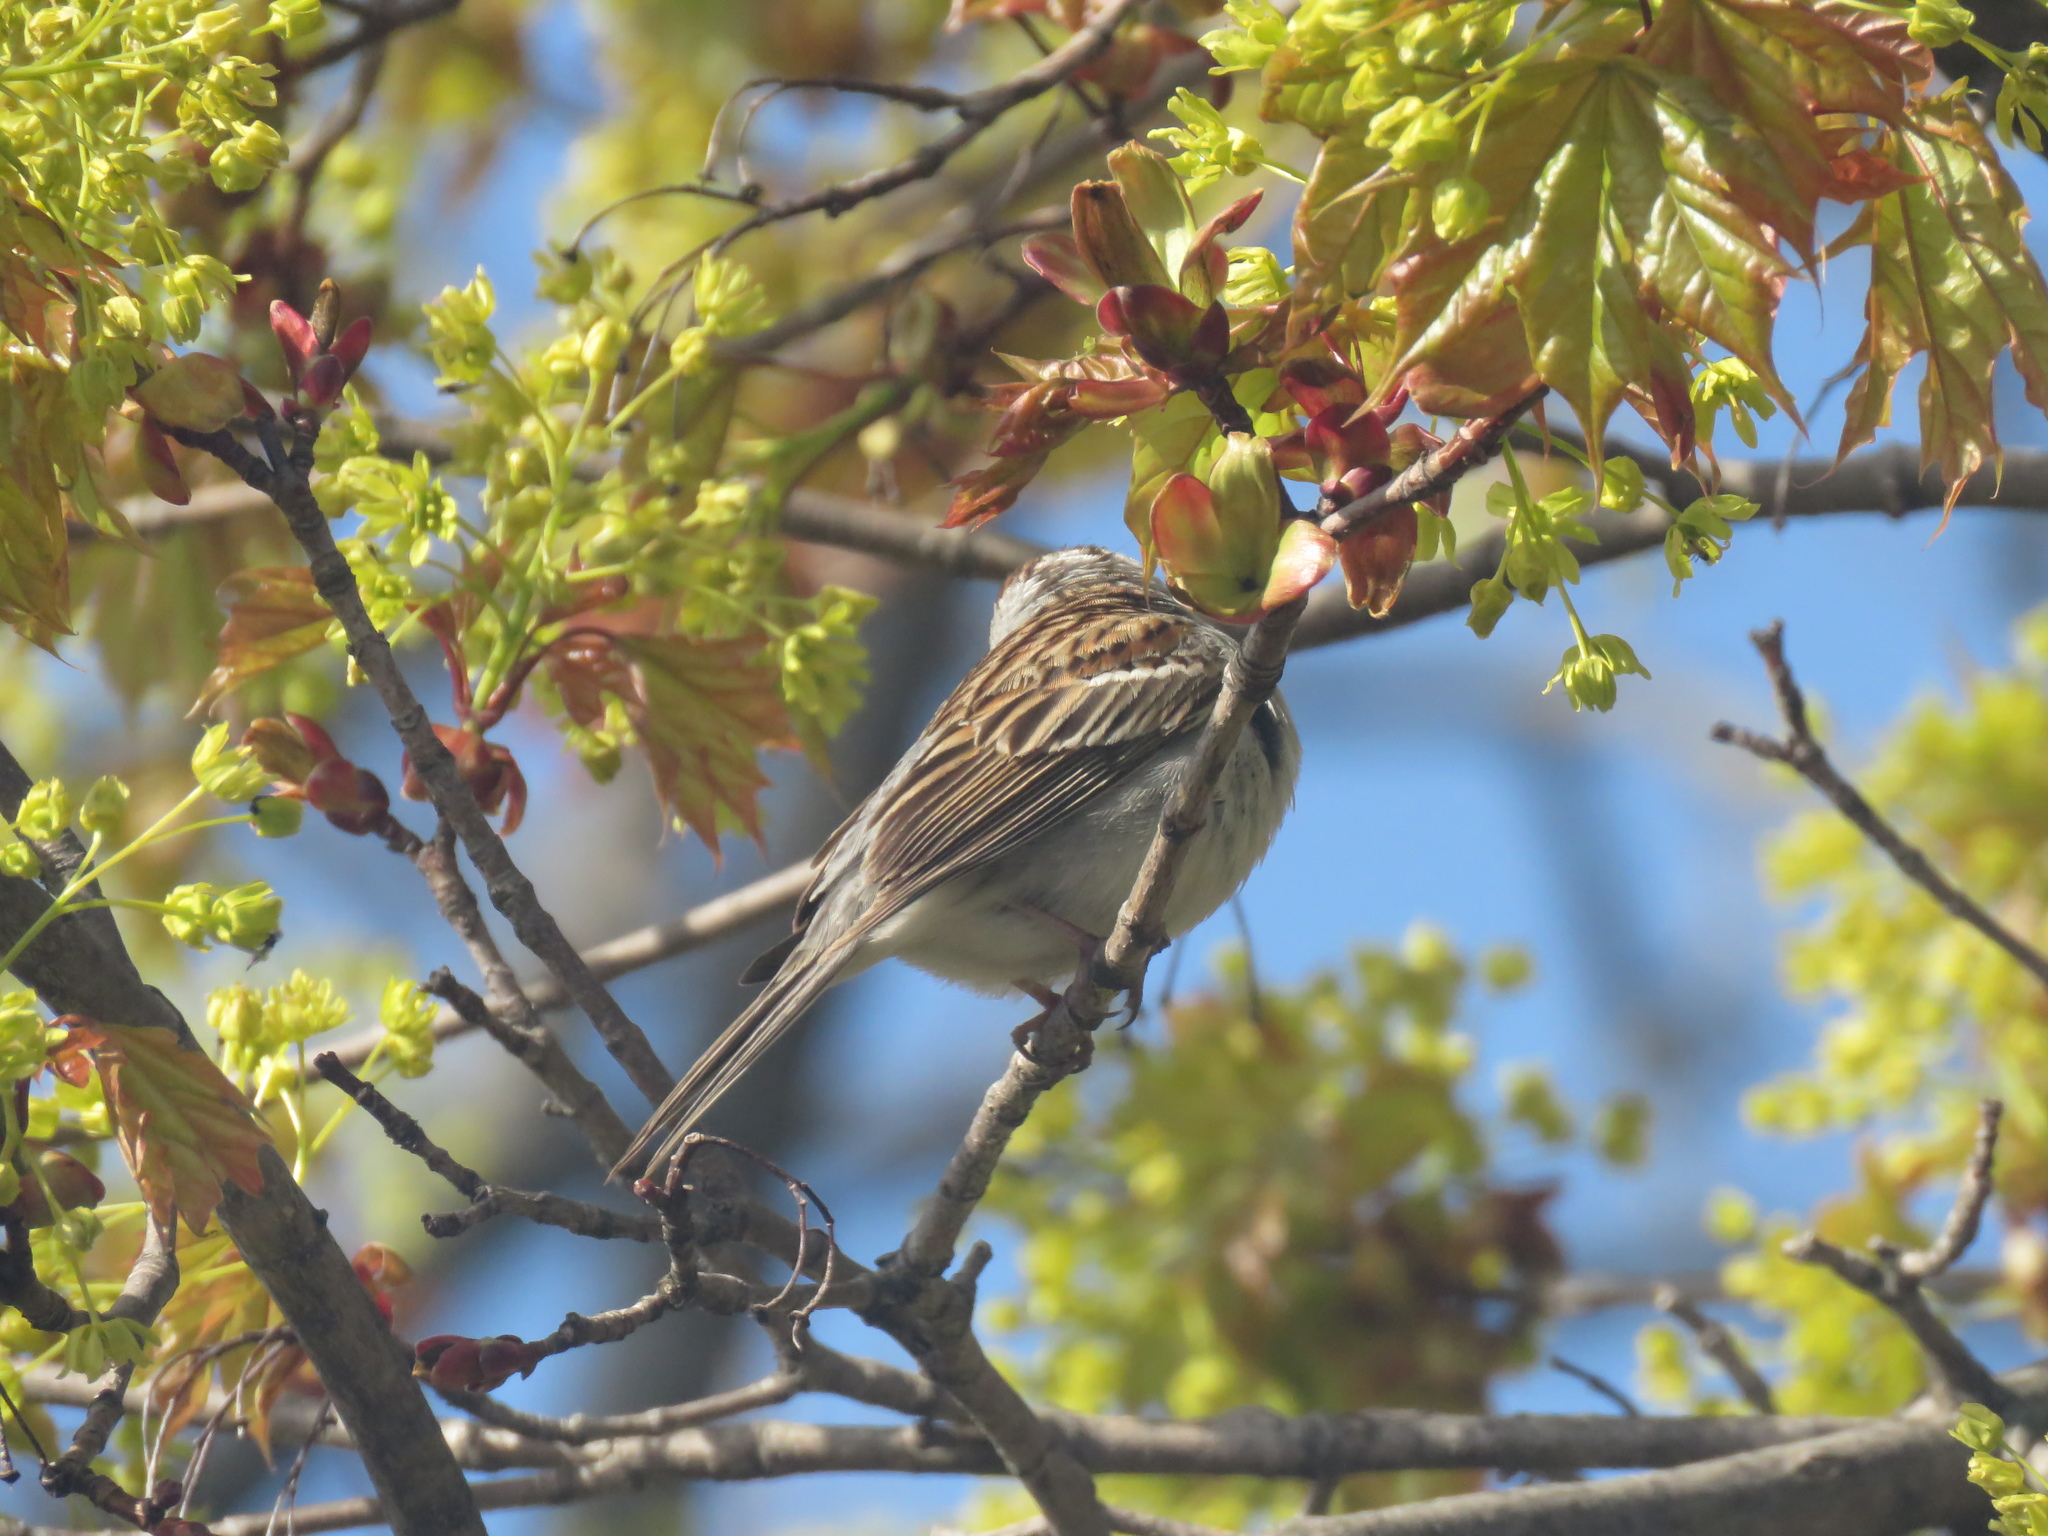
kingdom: Animalia
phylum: Chordata
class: Aves
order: Passeriformes
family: Passerellidae
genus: Spizella
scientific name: Spizella passerina
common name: Chipping sparrow
